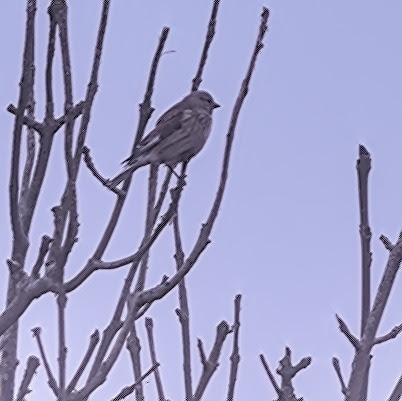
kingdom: Animalia
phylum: Chordata
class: Aves
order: Passeriformes
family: Fringillidae
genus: Linaria
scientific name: Linaria cannabina
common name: Common linnet
